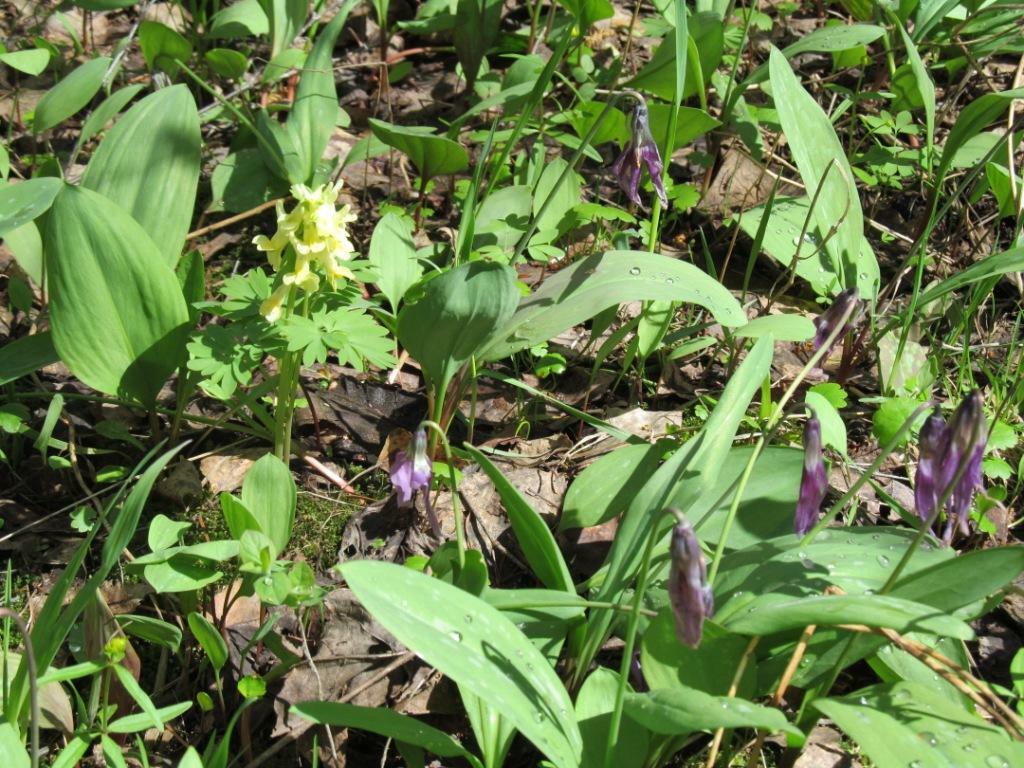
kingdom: Plantae
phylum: Tracheophyta
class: Magnoliopsida
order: Ranunculales
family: Papaveraceae
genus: Corydalis
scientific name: Corydalis bracteata
